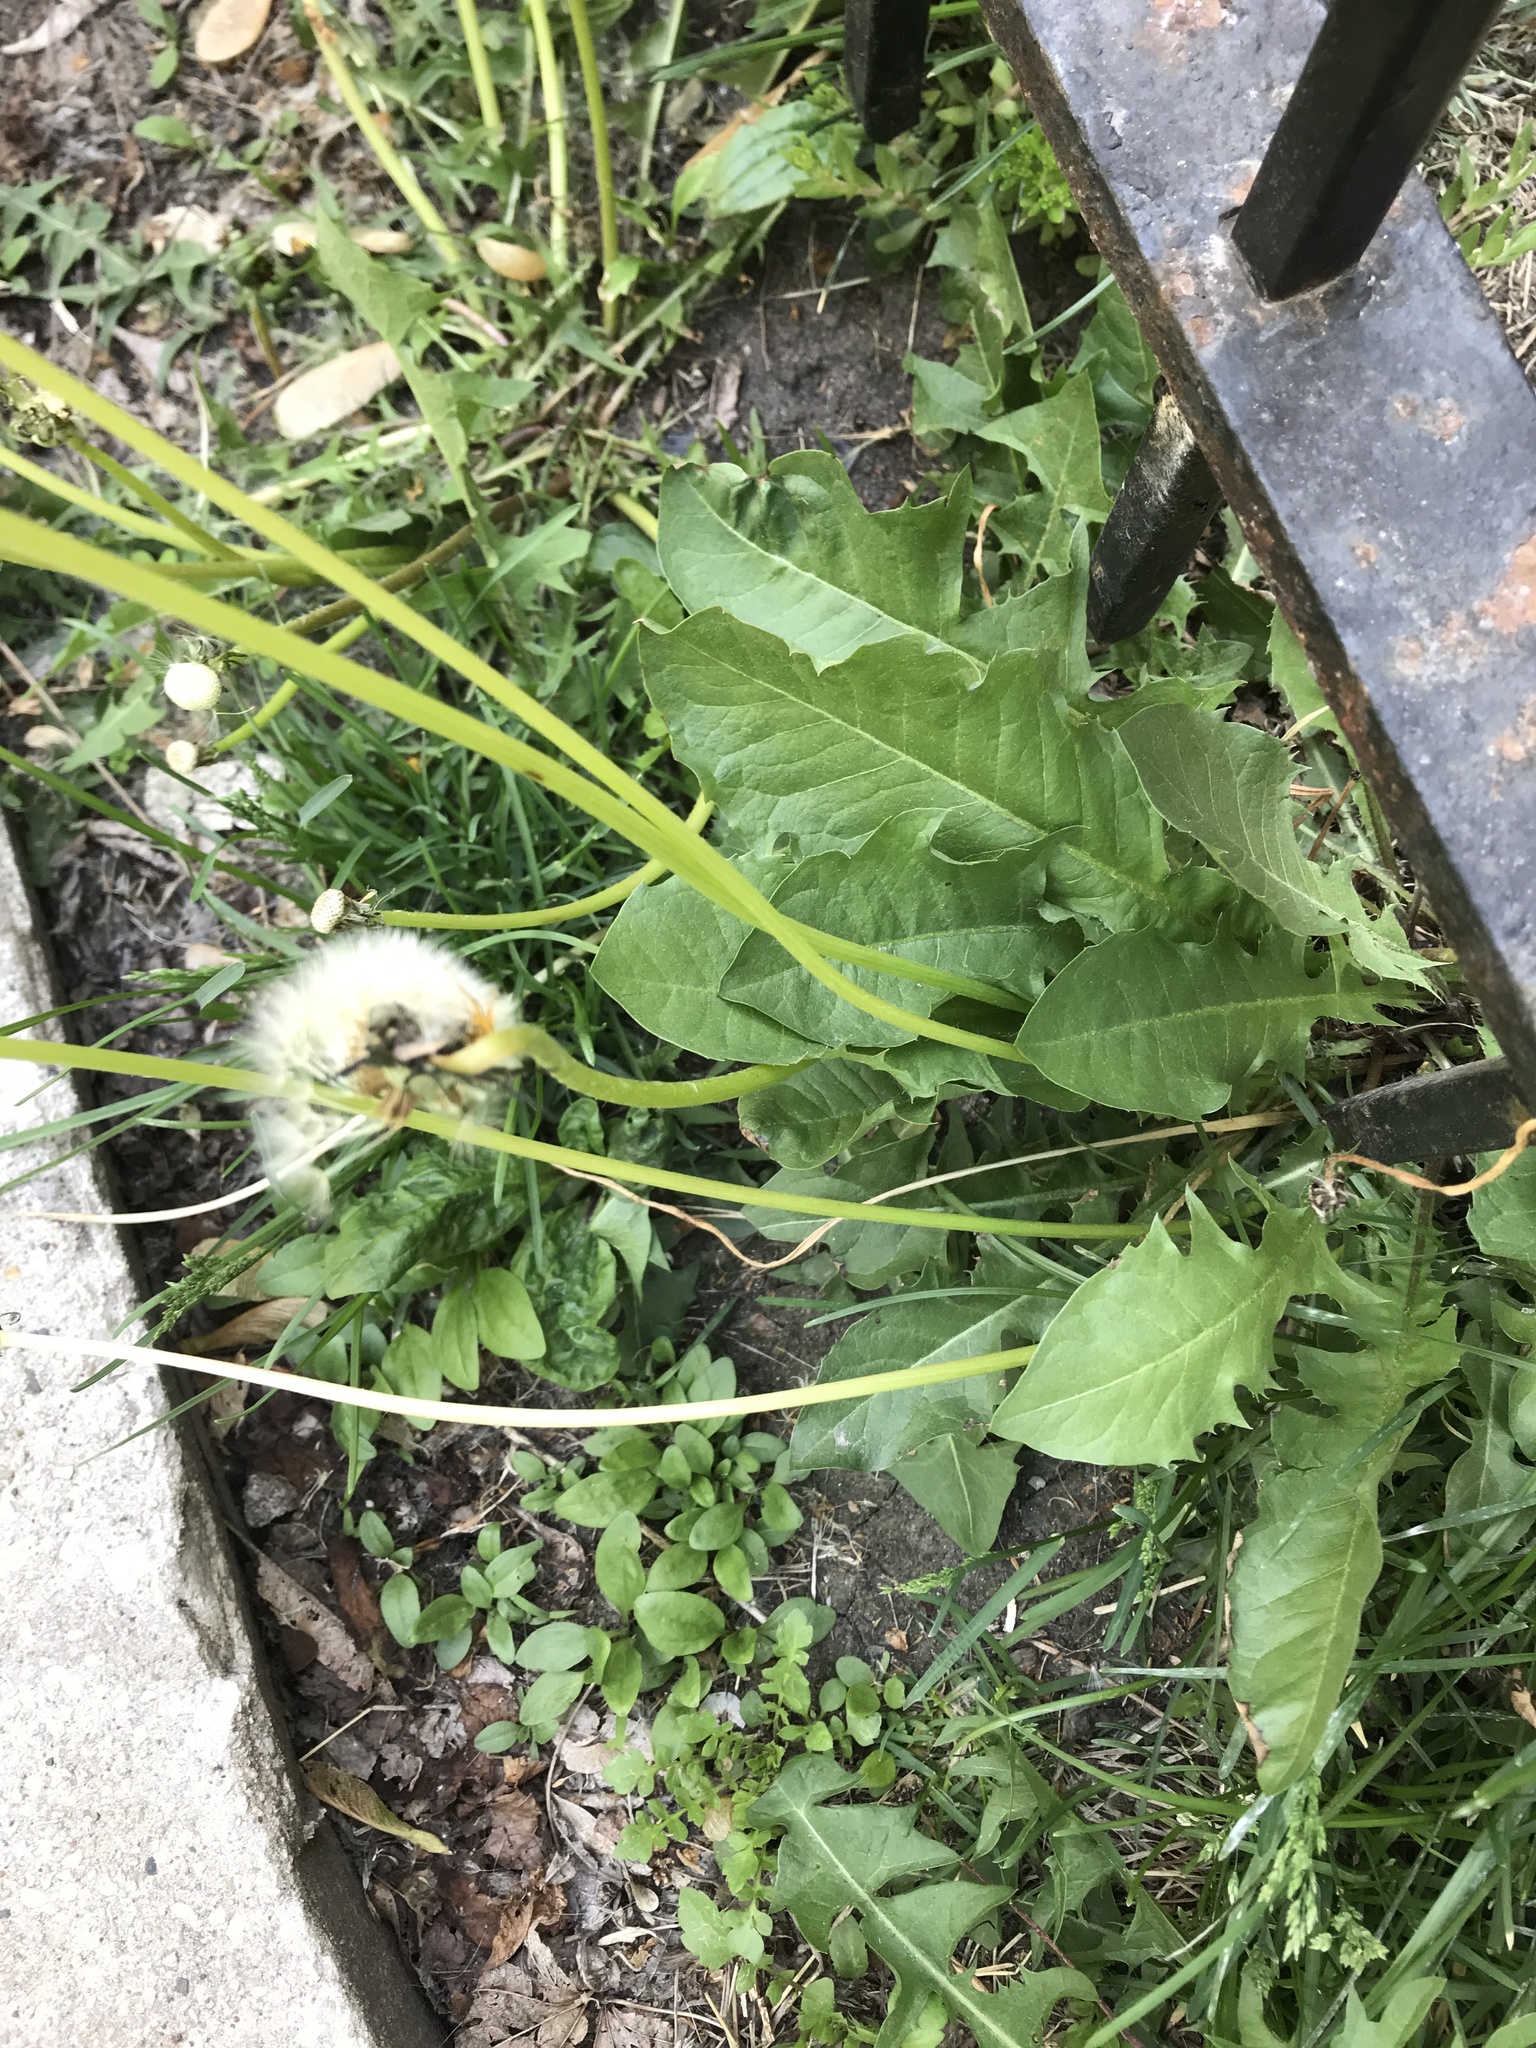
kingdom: Plantae
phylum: Tracheophyta
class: Magnoliopsida
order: Asterales
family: Asteraceae
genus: Taraxacum
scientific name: Taraxacum officinale
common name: Common dandelion
